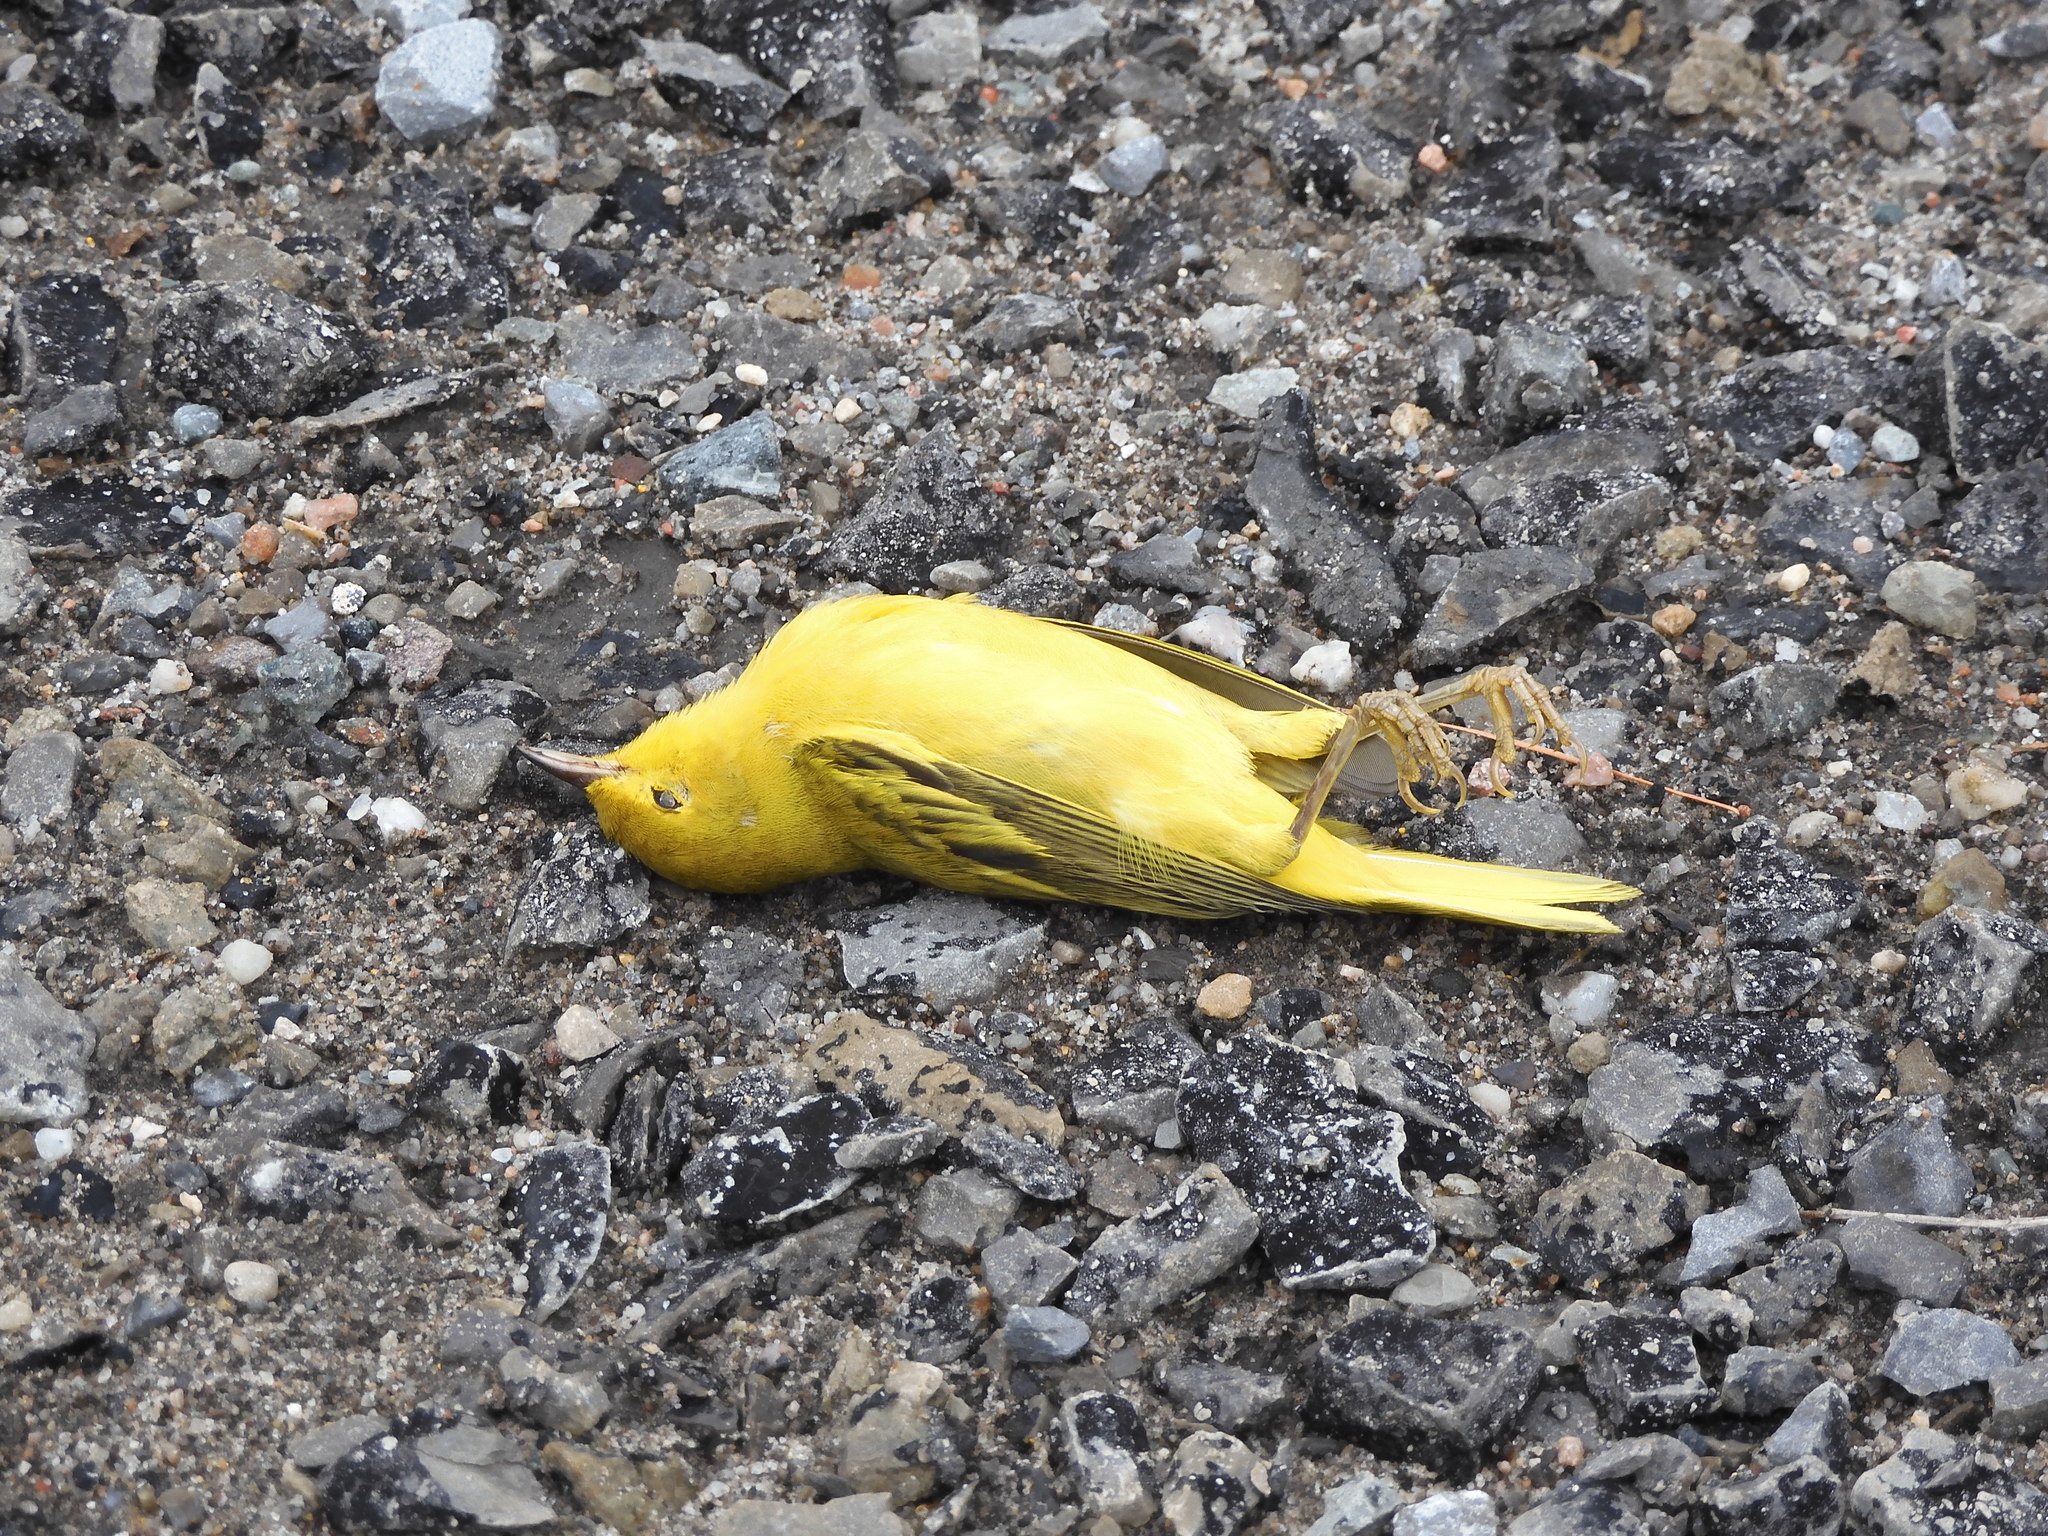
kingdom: Animalia
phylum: Chordata
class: Aves
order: Passeriformes
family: Parulidae
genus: Setophaga
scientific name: Setophaga petechia
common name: Yellow warbler
